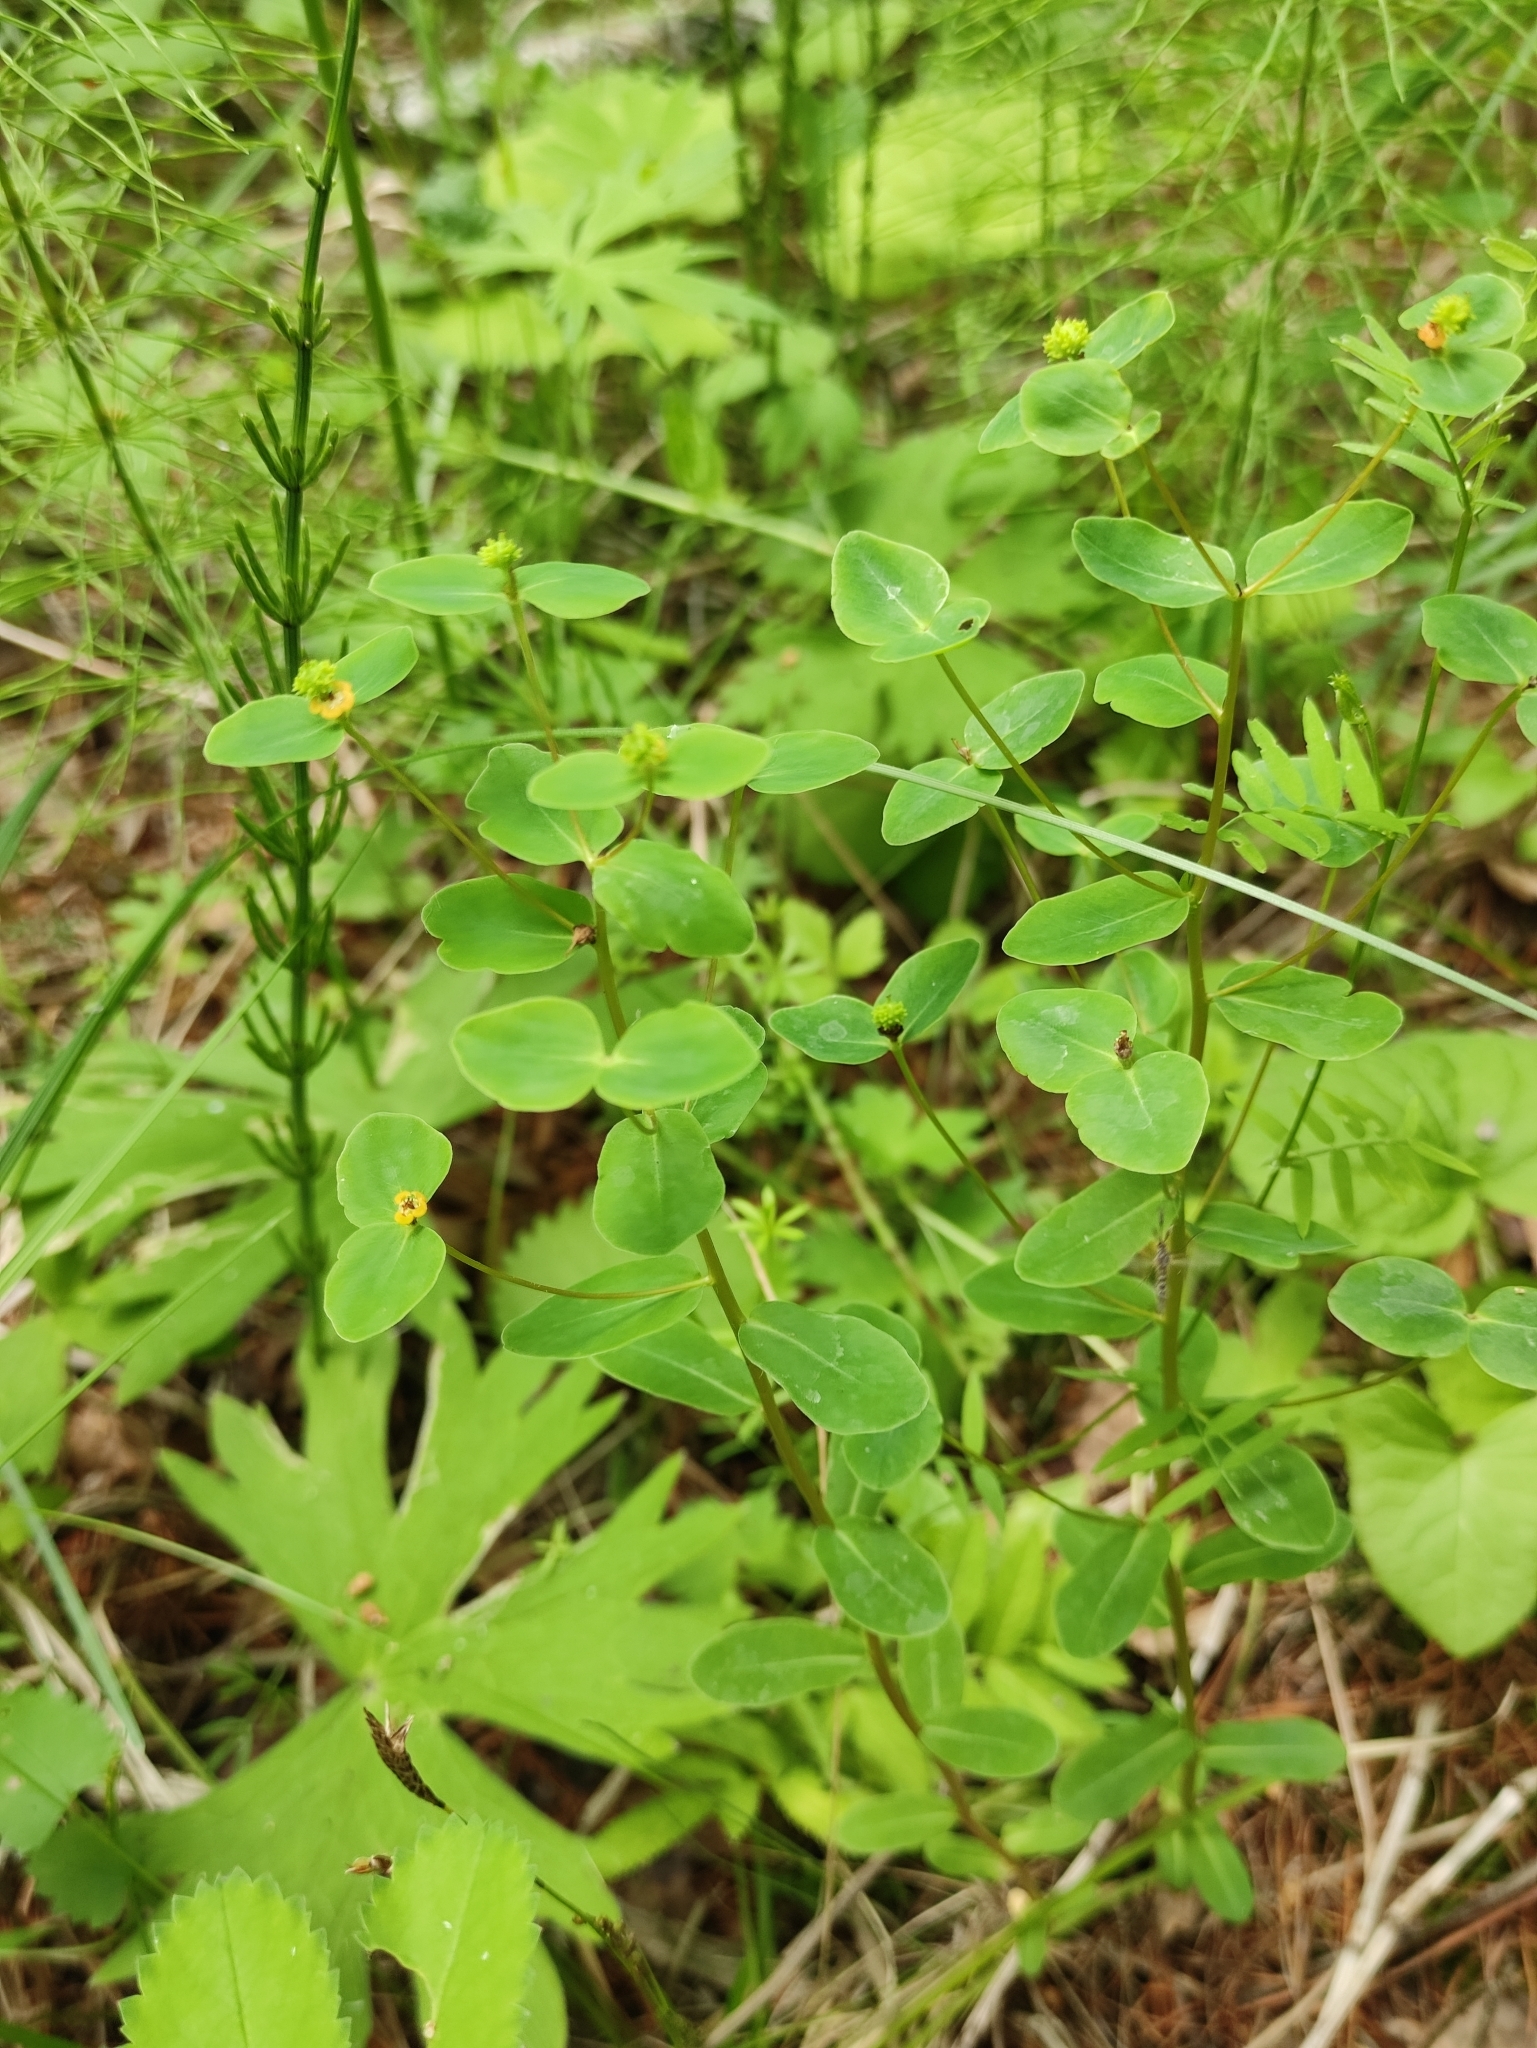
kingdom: Plantae
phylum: Tracheophyta
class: Magnoliopsida
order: Malpighiales
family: Euphorbiaceae
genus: Euphorbia
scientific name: Euphorbia jenisseiensis
